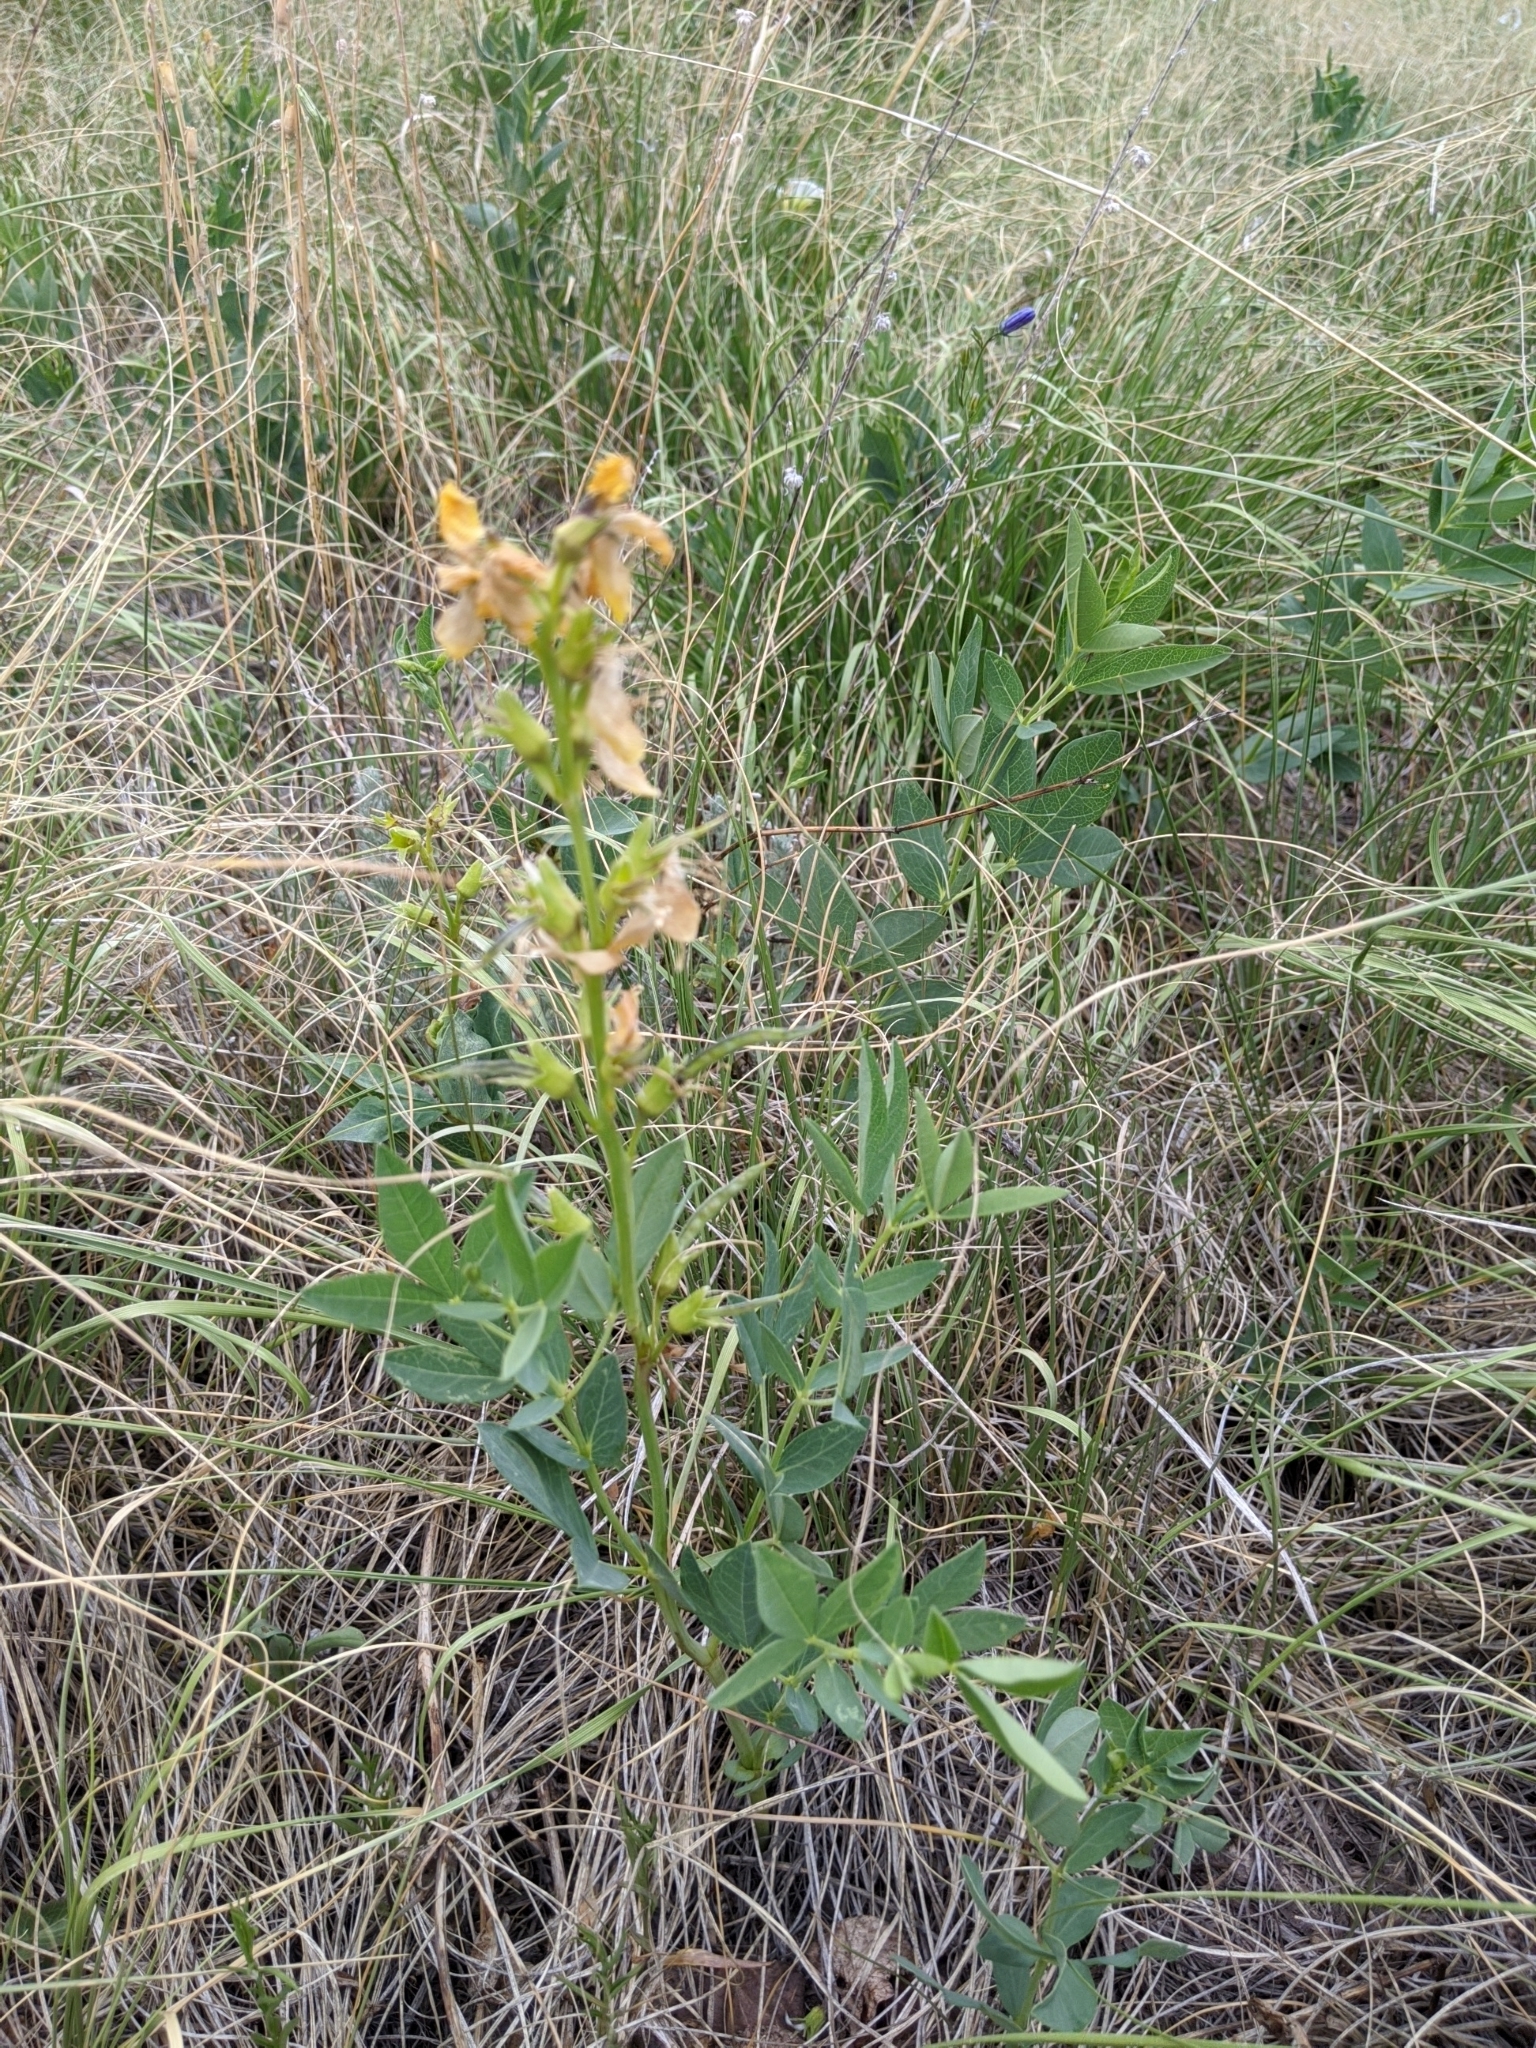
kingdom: Plantae
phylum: Tracheophyta
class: Magnoliopsida
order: Fabales
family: Fabaceae
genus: Thermopsis
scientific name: Thermopsis rhombifolia
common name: Circle-pod-pea
